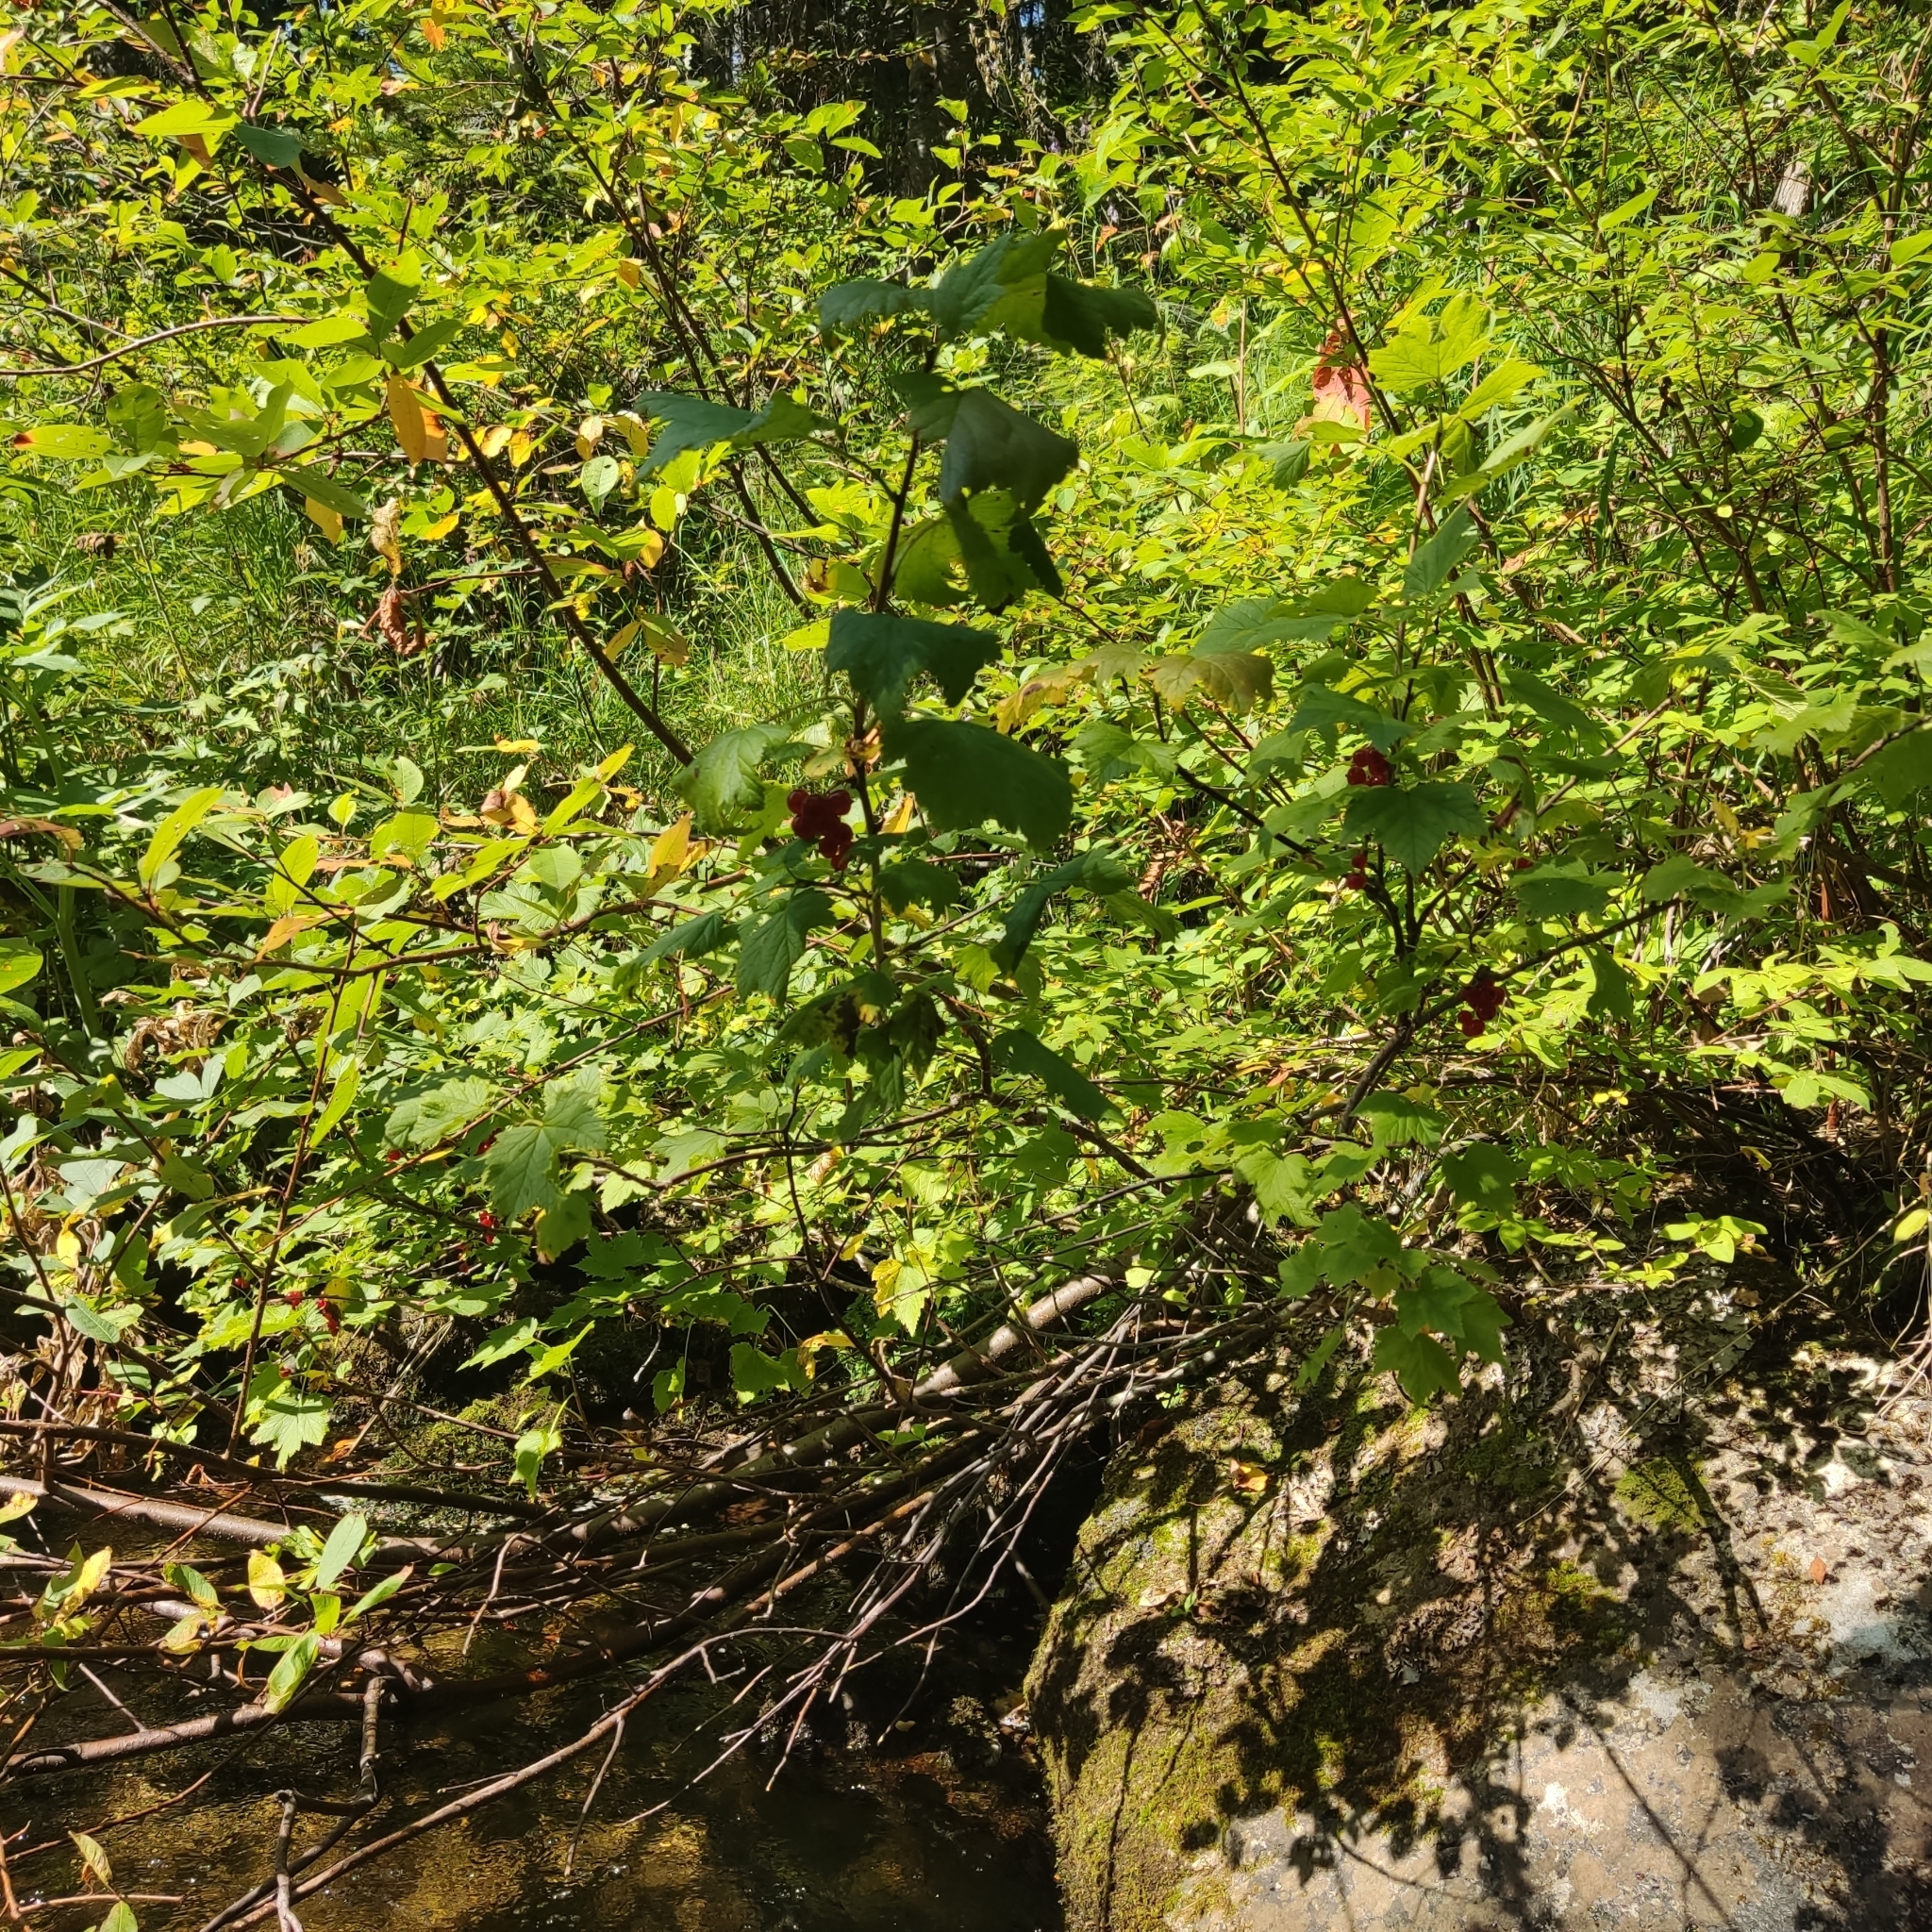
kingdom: Plantae
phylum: Tracheophyta
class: Magnoliopsida
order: Saxifragales
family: Grossulariaceae
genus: Ribes
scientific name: Ribes spicatum
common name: Downy currant
